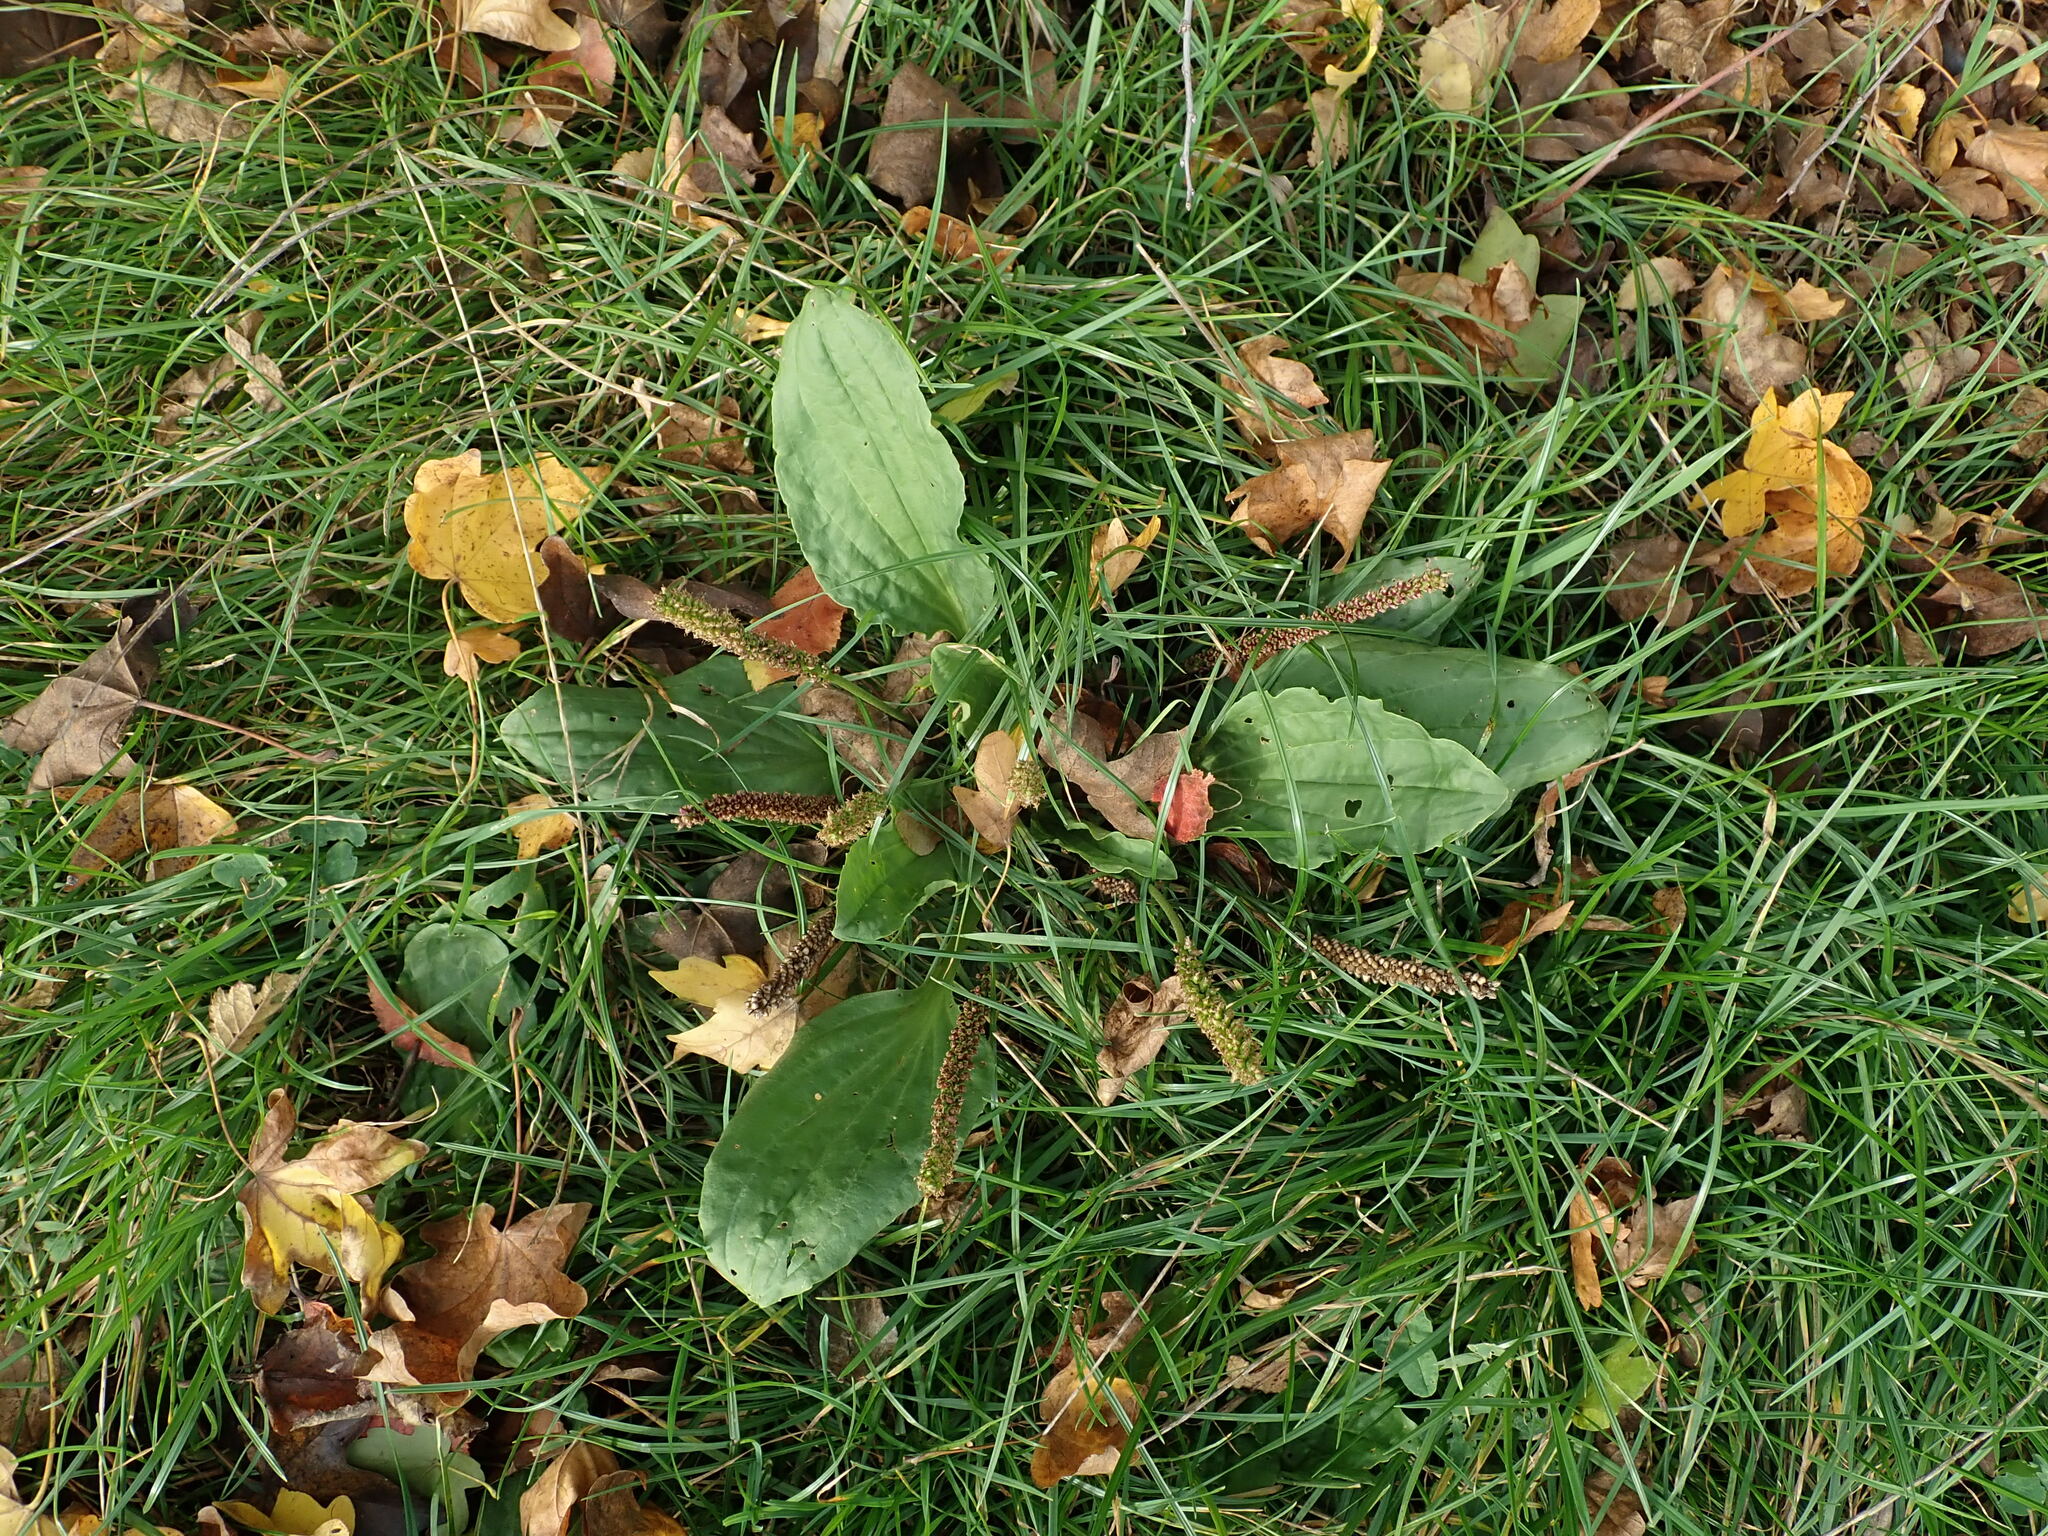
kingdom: Plantae
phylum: Tracheophyta
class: Magnoliopsida
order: Lamiales
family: Plantaginaceae
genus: Plantago
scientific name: Plantago major
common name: Common plantain
